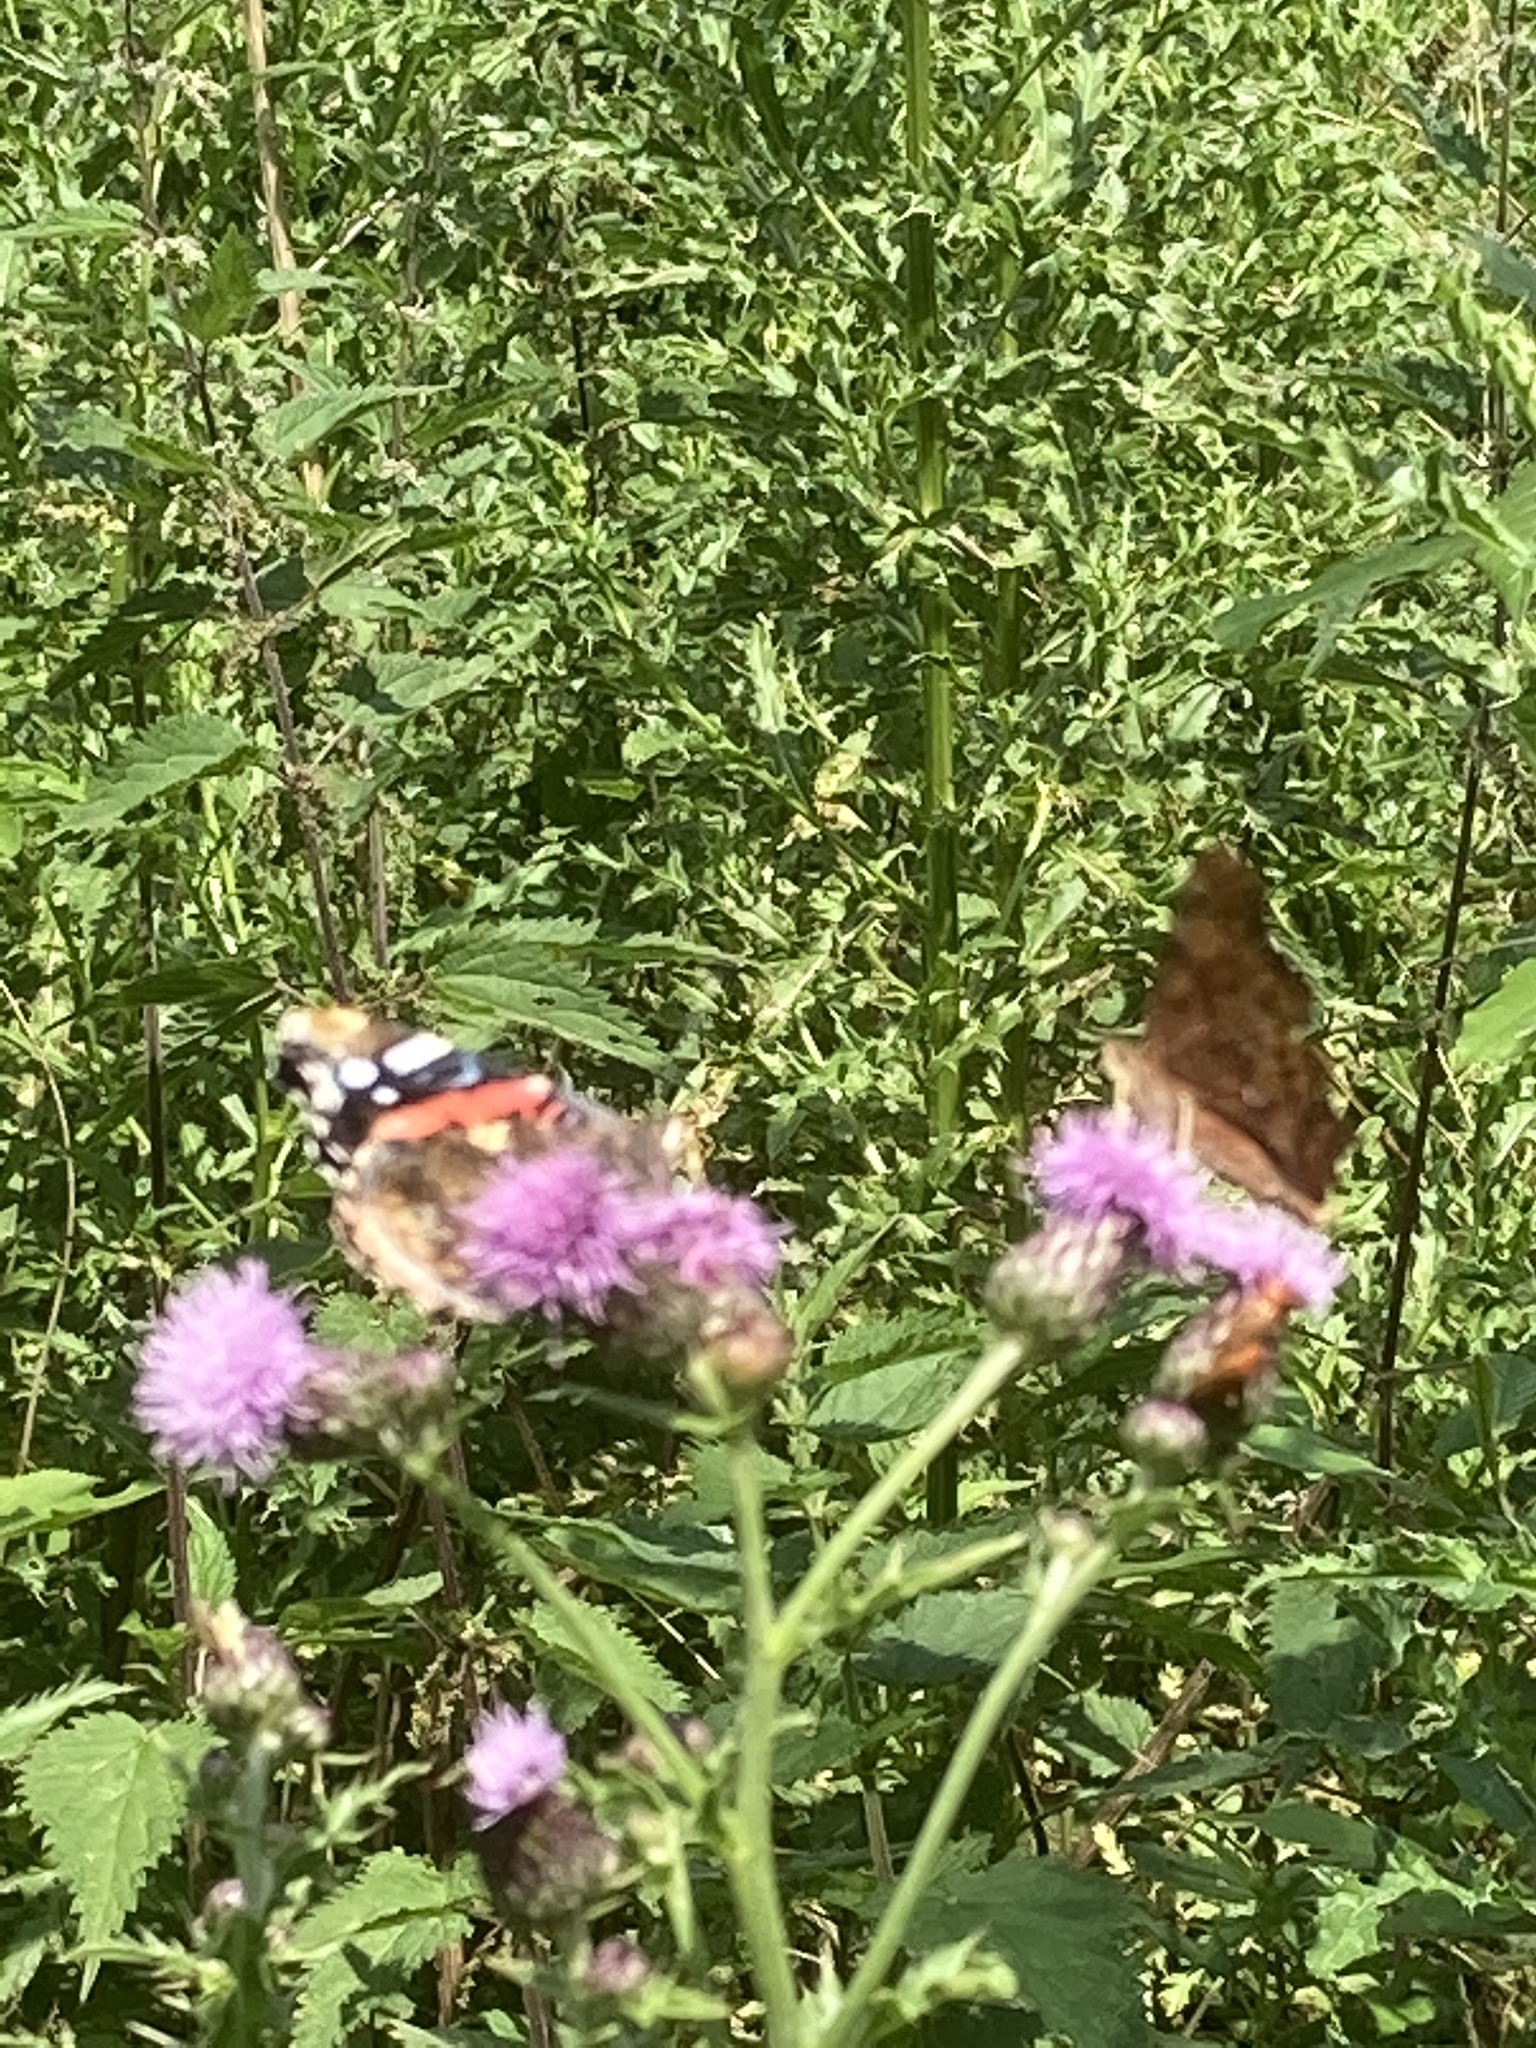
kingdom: Animalia
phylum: Arthropoda
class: Insecta
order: Lepidoptera
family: Nymphalidae
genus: Vanessa
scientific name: Vanessa atalanta
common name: Red admiral
